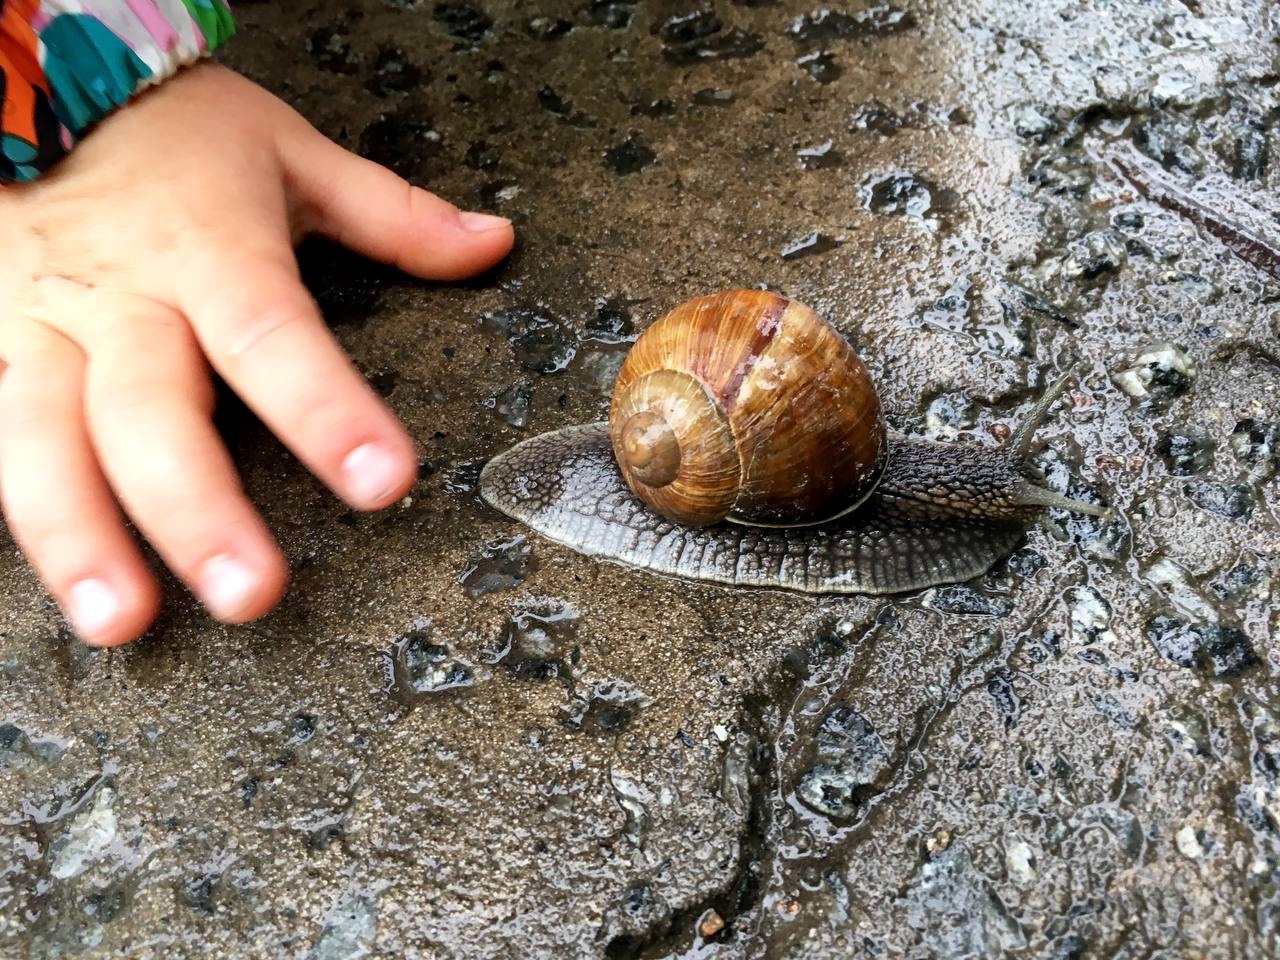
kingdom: Animalia
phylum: Mollusca
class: Gastropoda
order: Stylommatophora
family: Helicidae
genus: Helix
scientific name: Helix pomatia
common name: Roman snail
